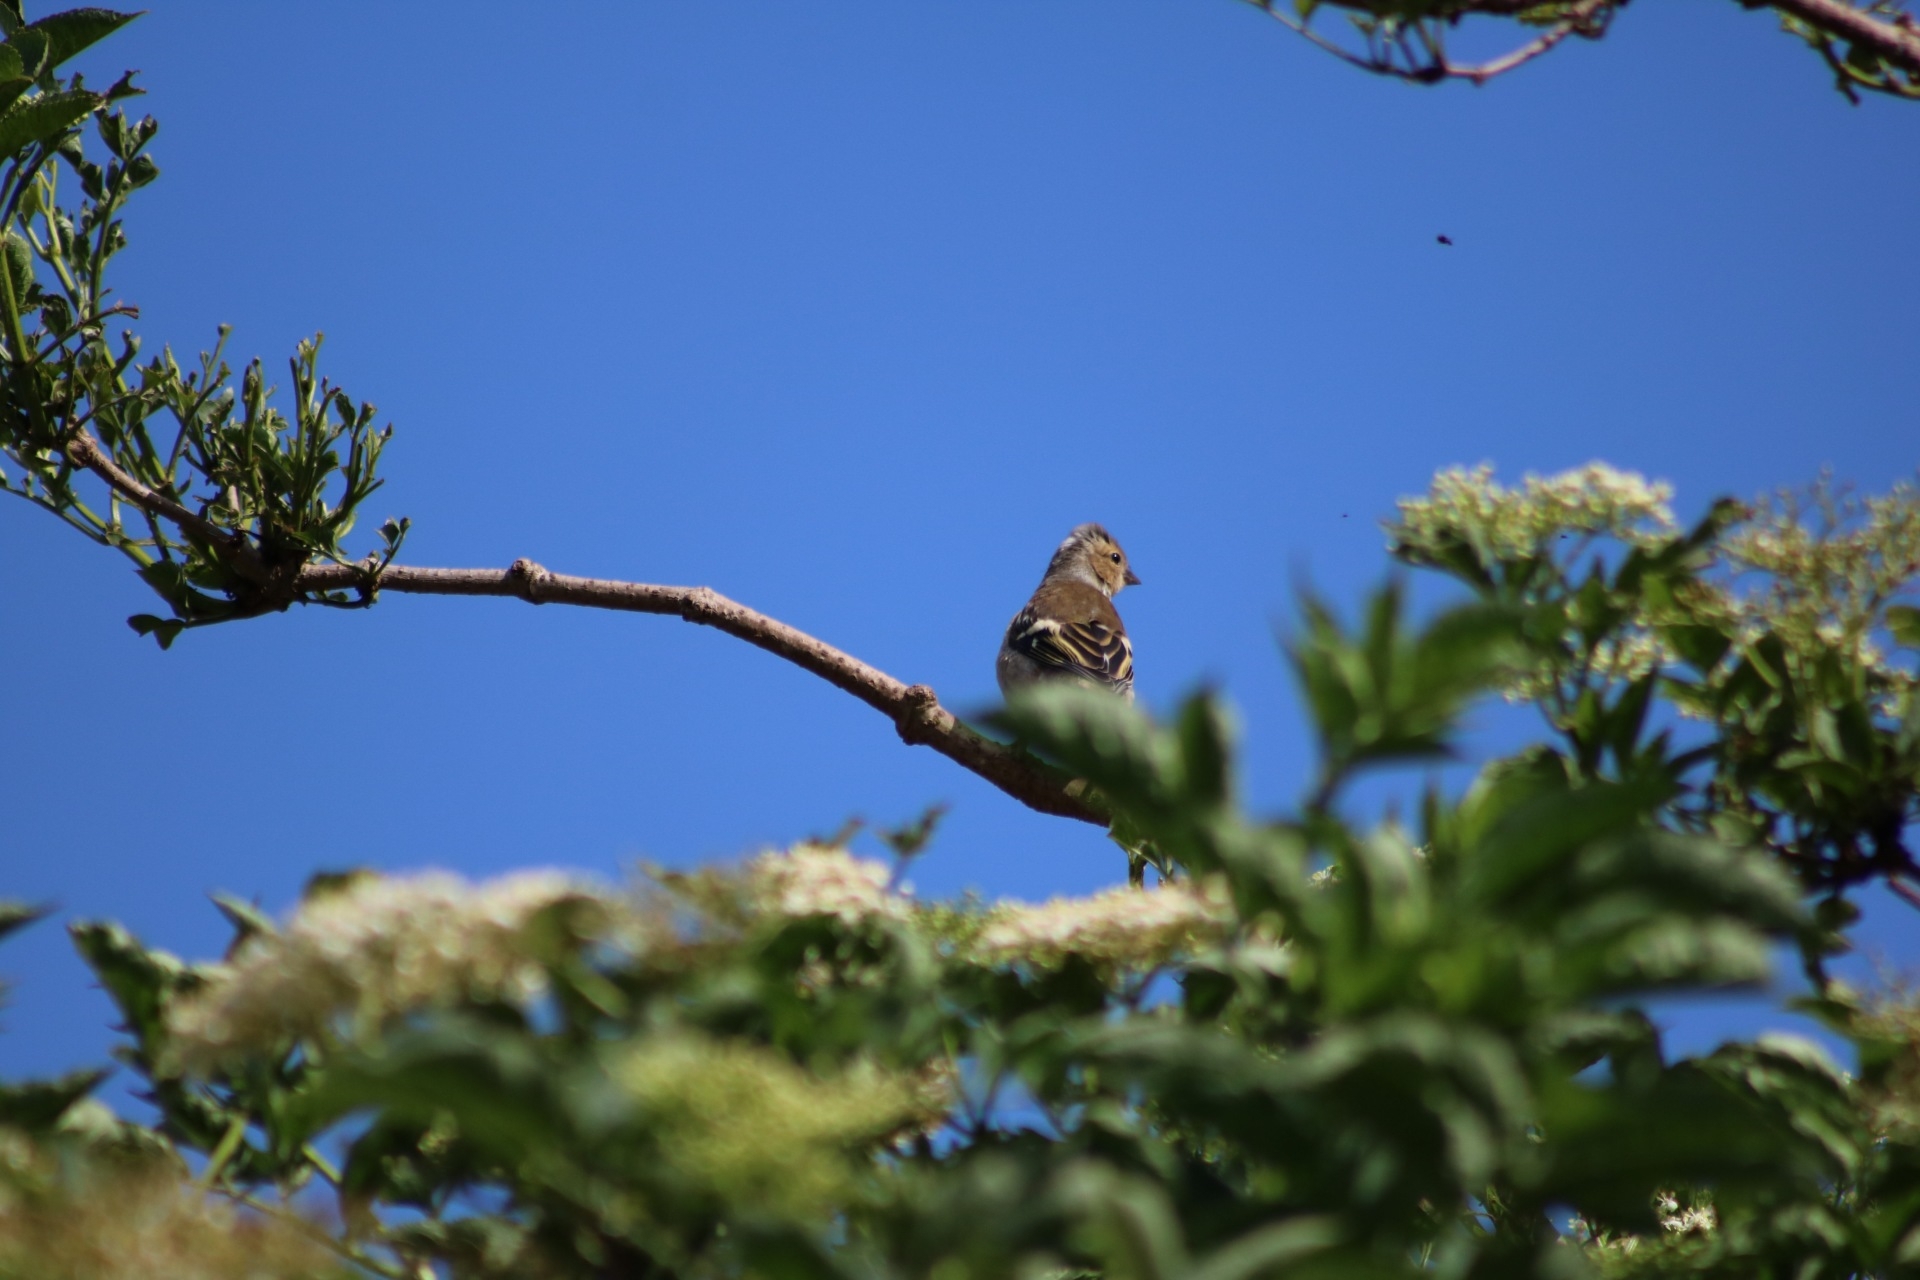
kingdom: Animalia
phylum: Chordata
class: Aves
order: Passeriformes
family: Fringillidae
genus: Fringilla
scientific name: Fringilla coelebs
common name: Common chaffinch
